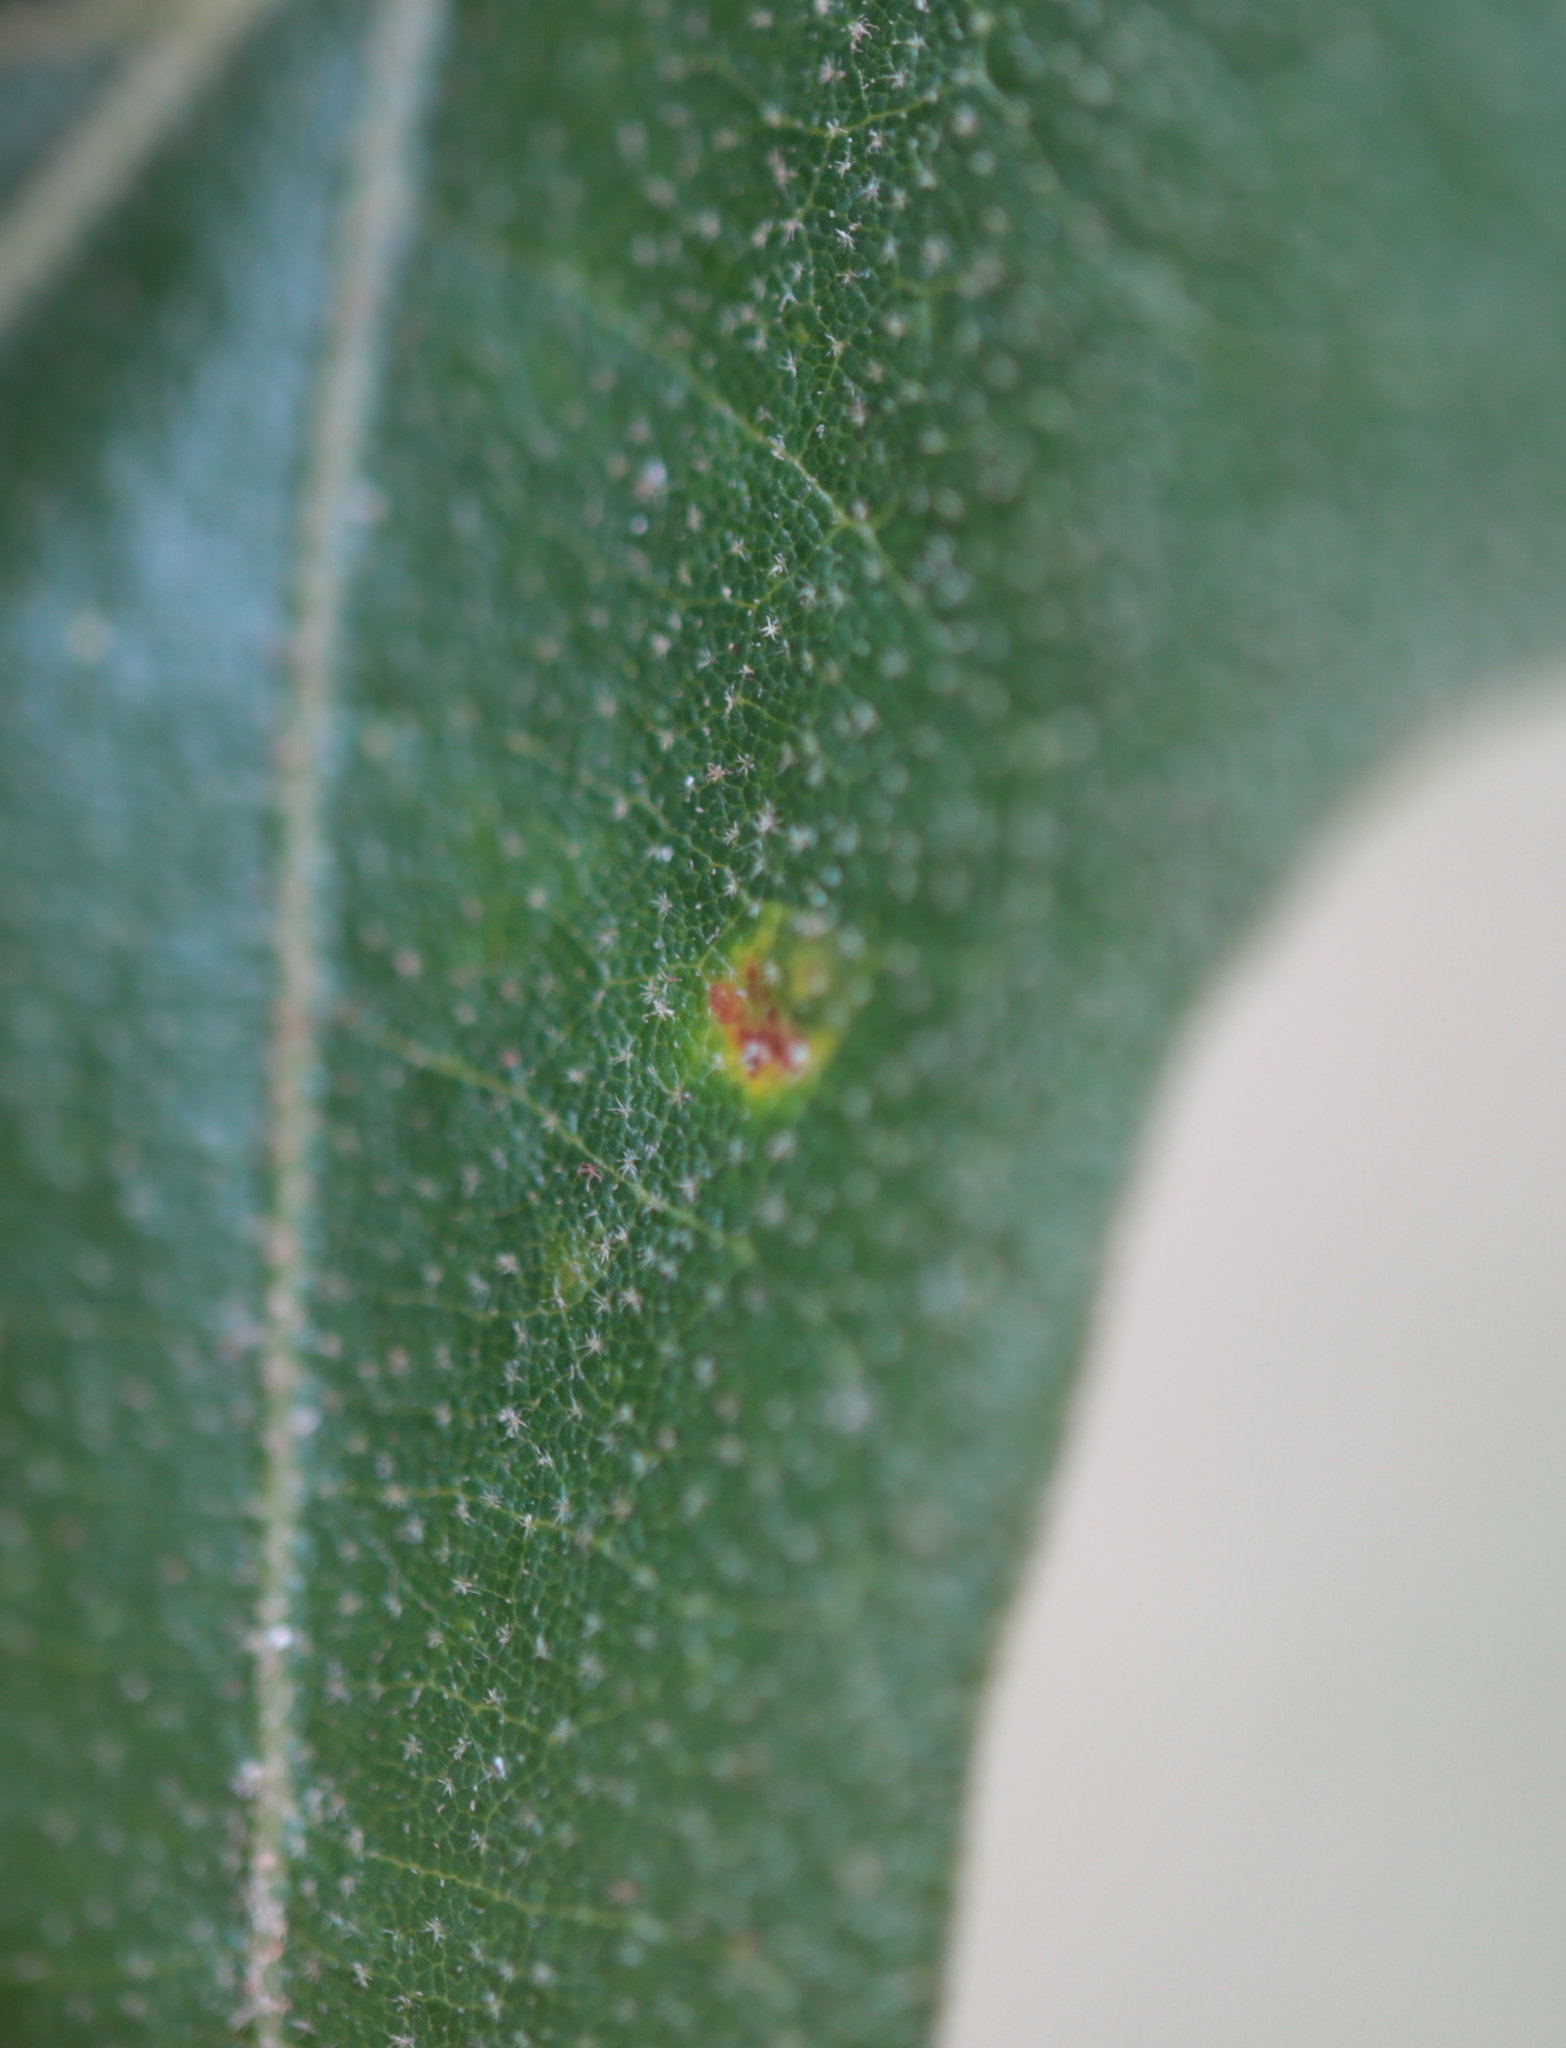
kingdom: Animalia
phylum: Arthropoda
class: Insecta
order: Hymenoptera
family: Cynipidae
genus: Neuroterus
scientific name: Neuroterus saltarius
